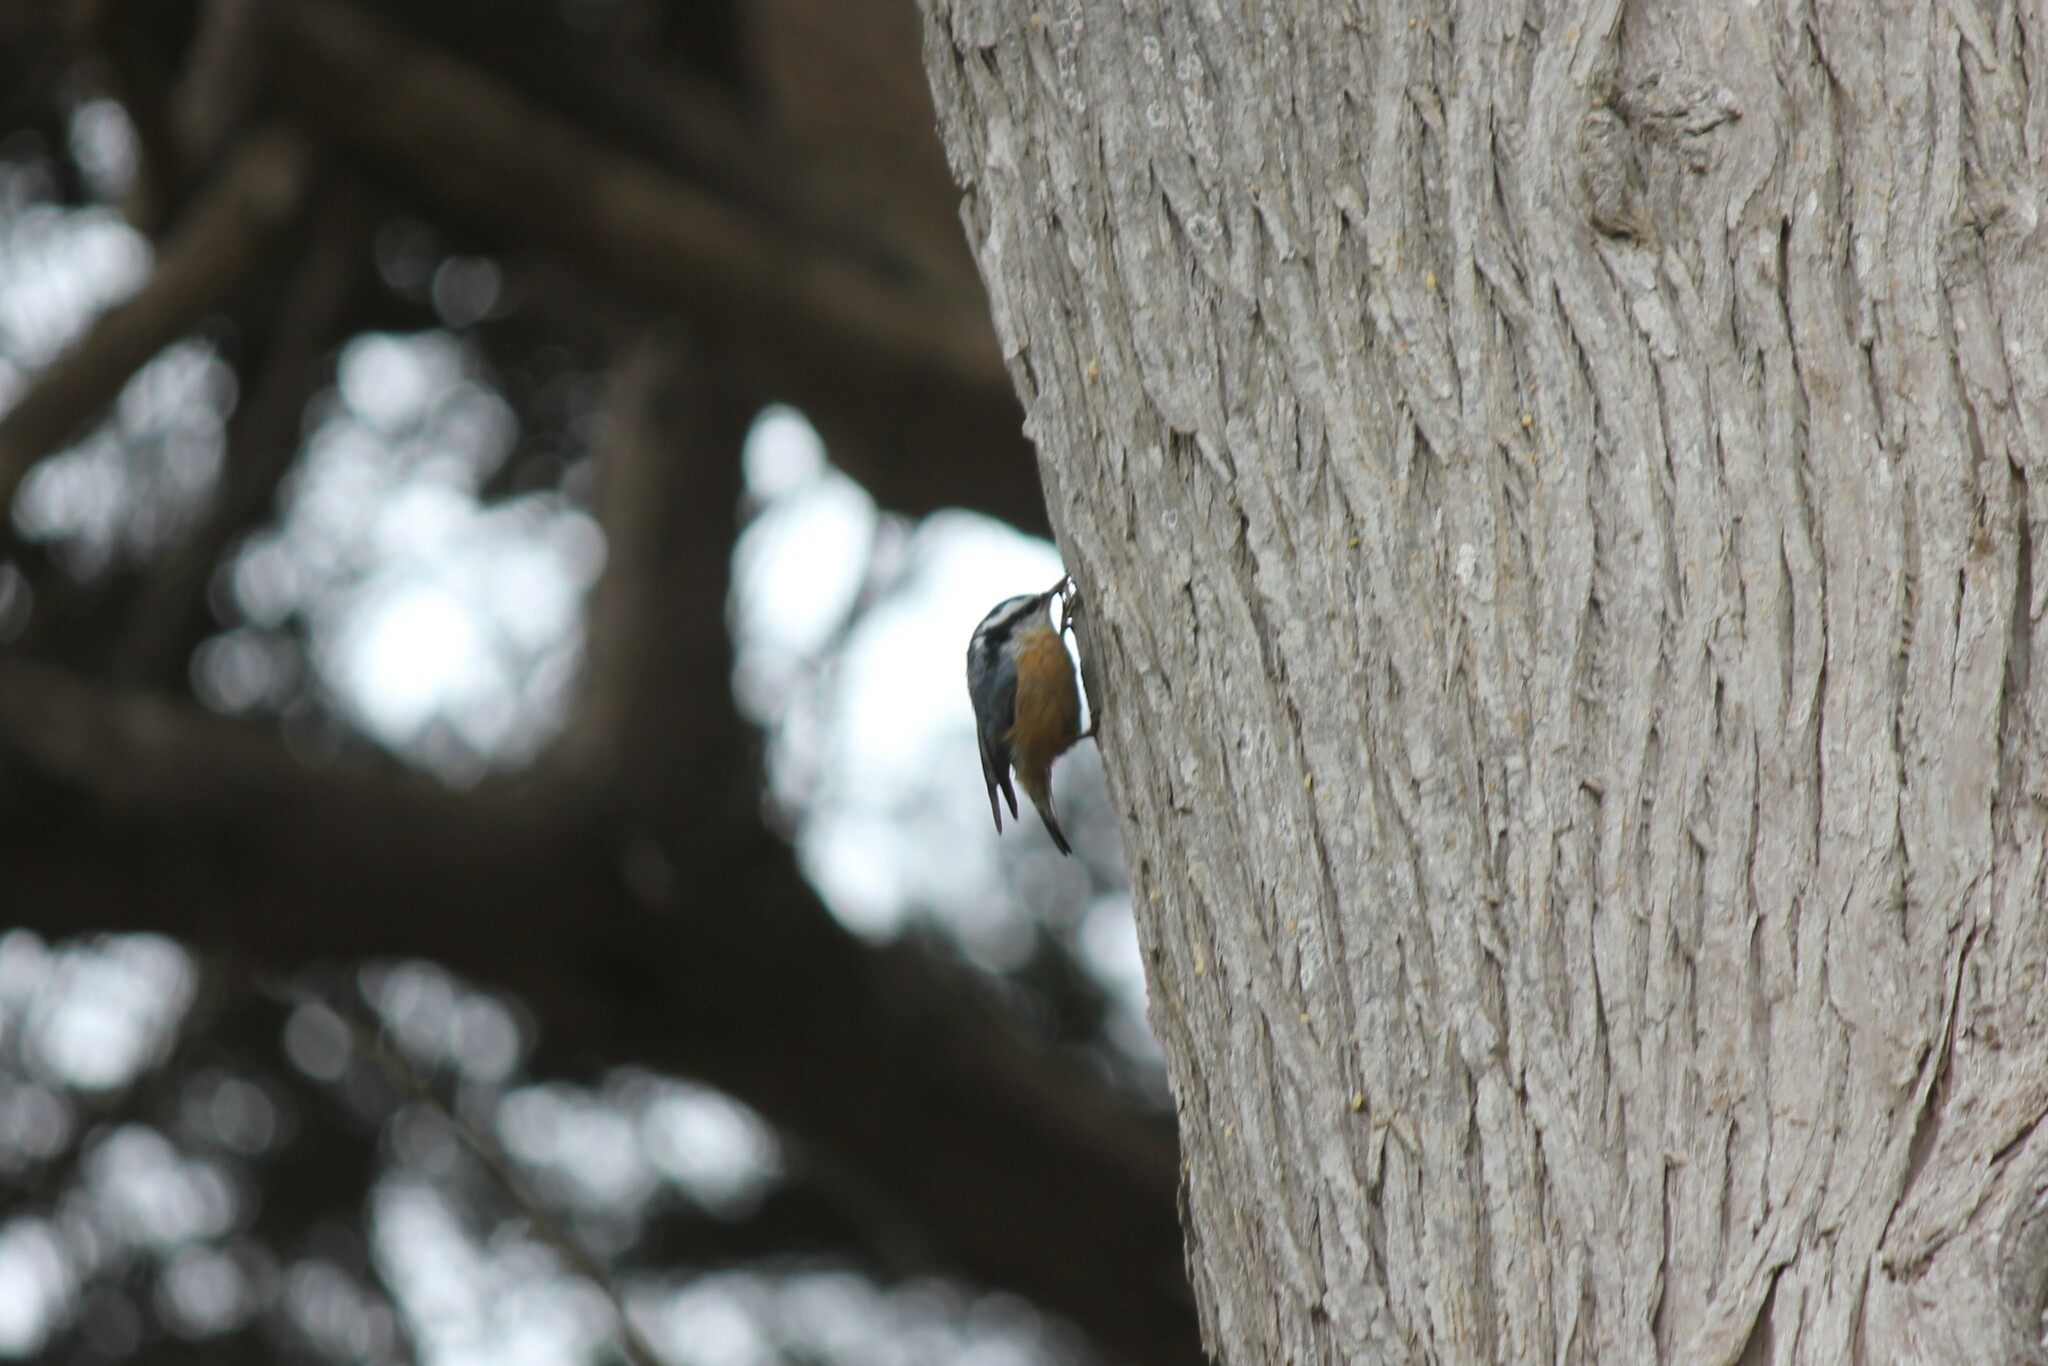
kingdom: Animalia
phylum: Chordata
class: Aves
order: Passeriformes
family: Sittidae
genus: Sitta
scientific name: Sitta canadensis
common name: Red-breasted nuthatch
